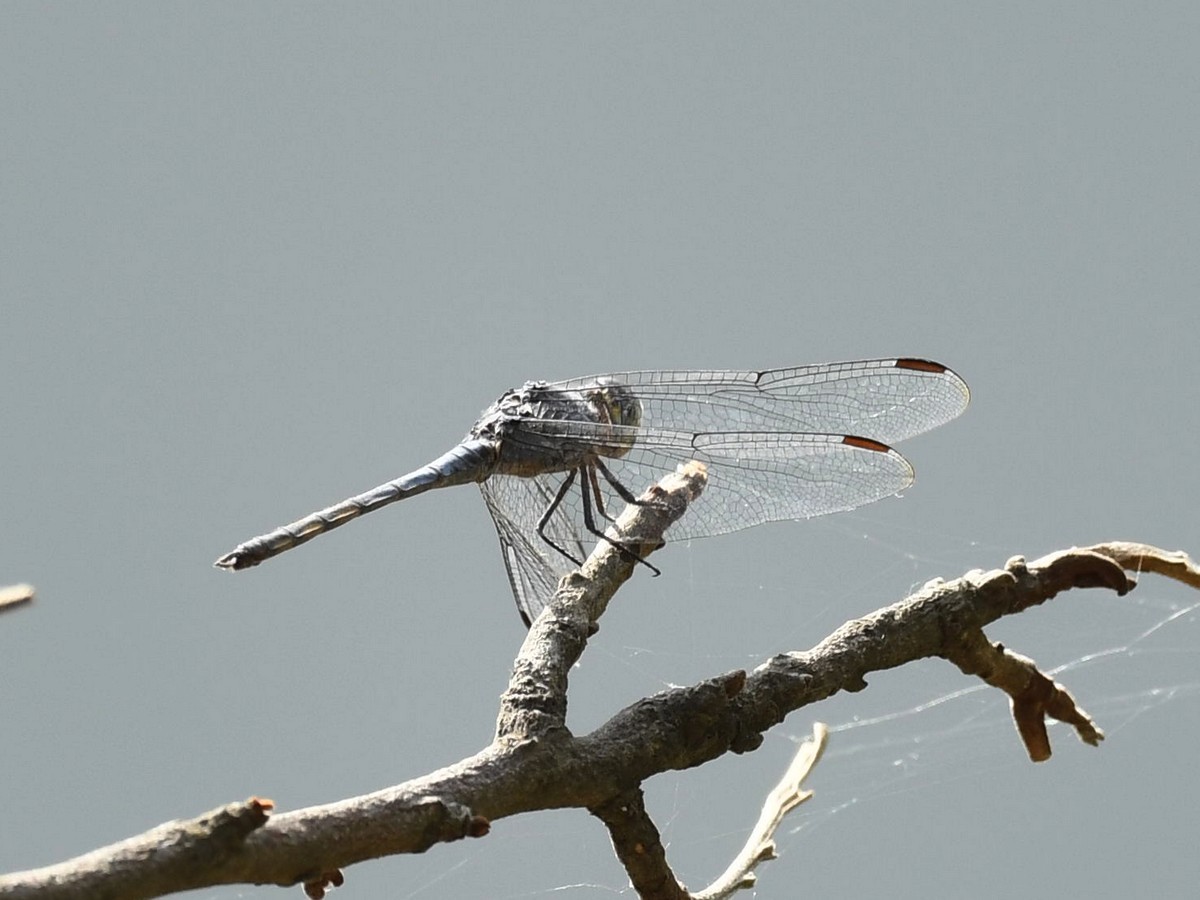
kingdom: Animalia
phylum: Arthropoda
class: Insecta
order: Odonata
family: Libellulidae
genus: Potamarcha
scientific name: Potamarcha congener
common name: Blue chaser
